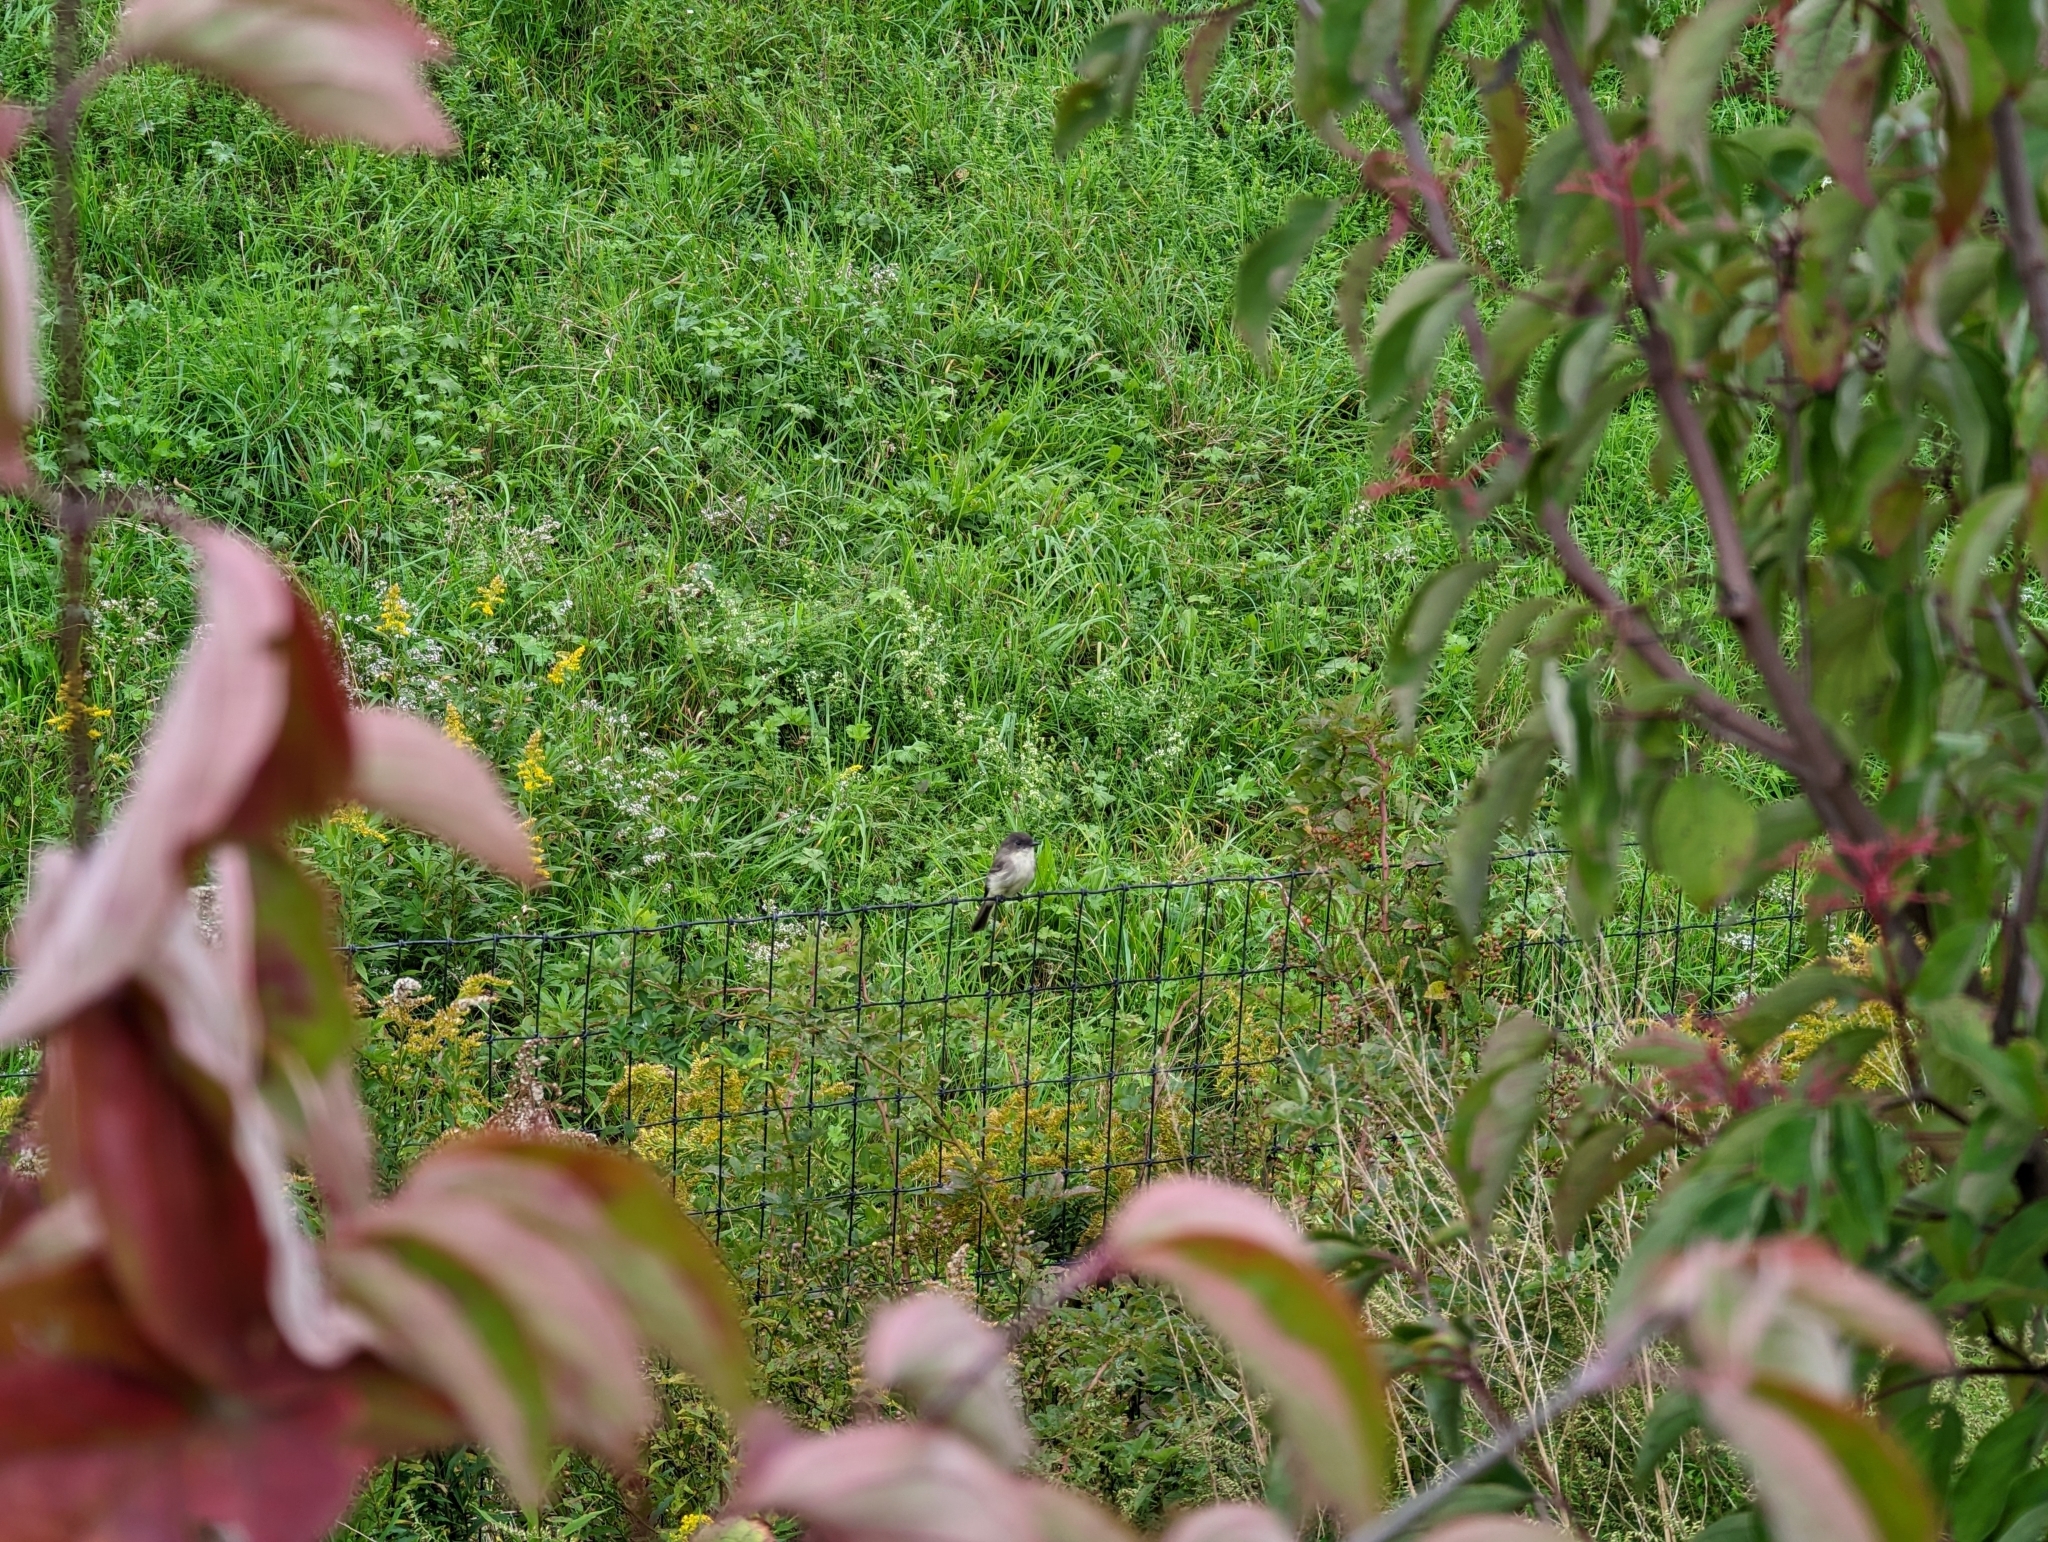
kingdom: Animalia
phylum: Chordata
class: Aves
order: Passeriformes
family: Tyrannidae
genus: Sayornis
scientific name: Sayornis phoebe
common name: Eastern phoebe
